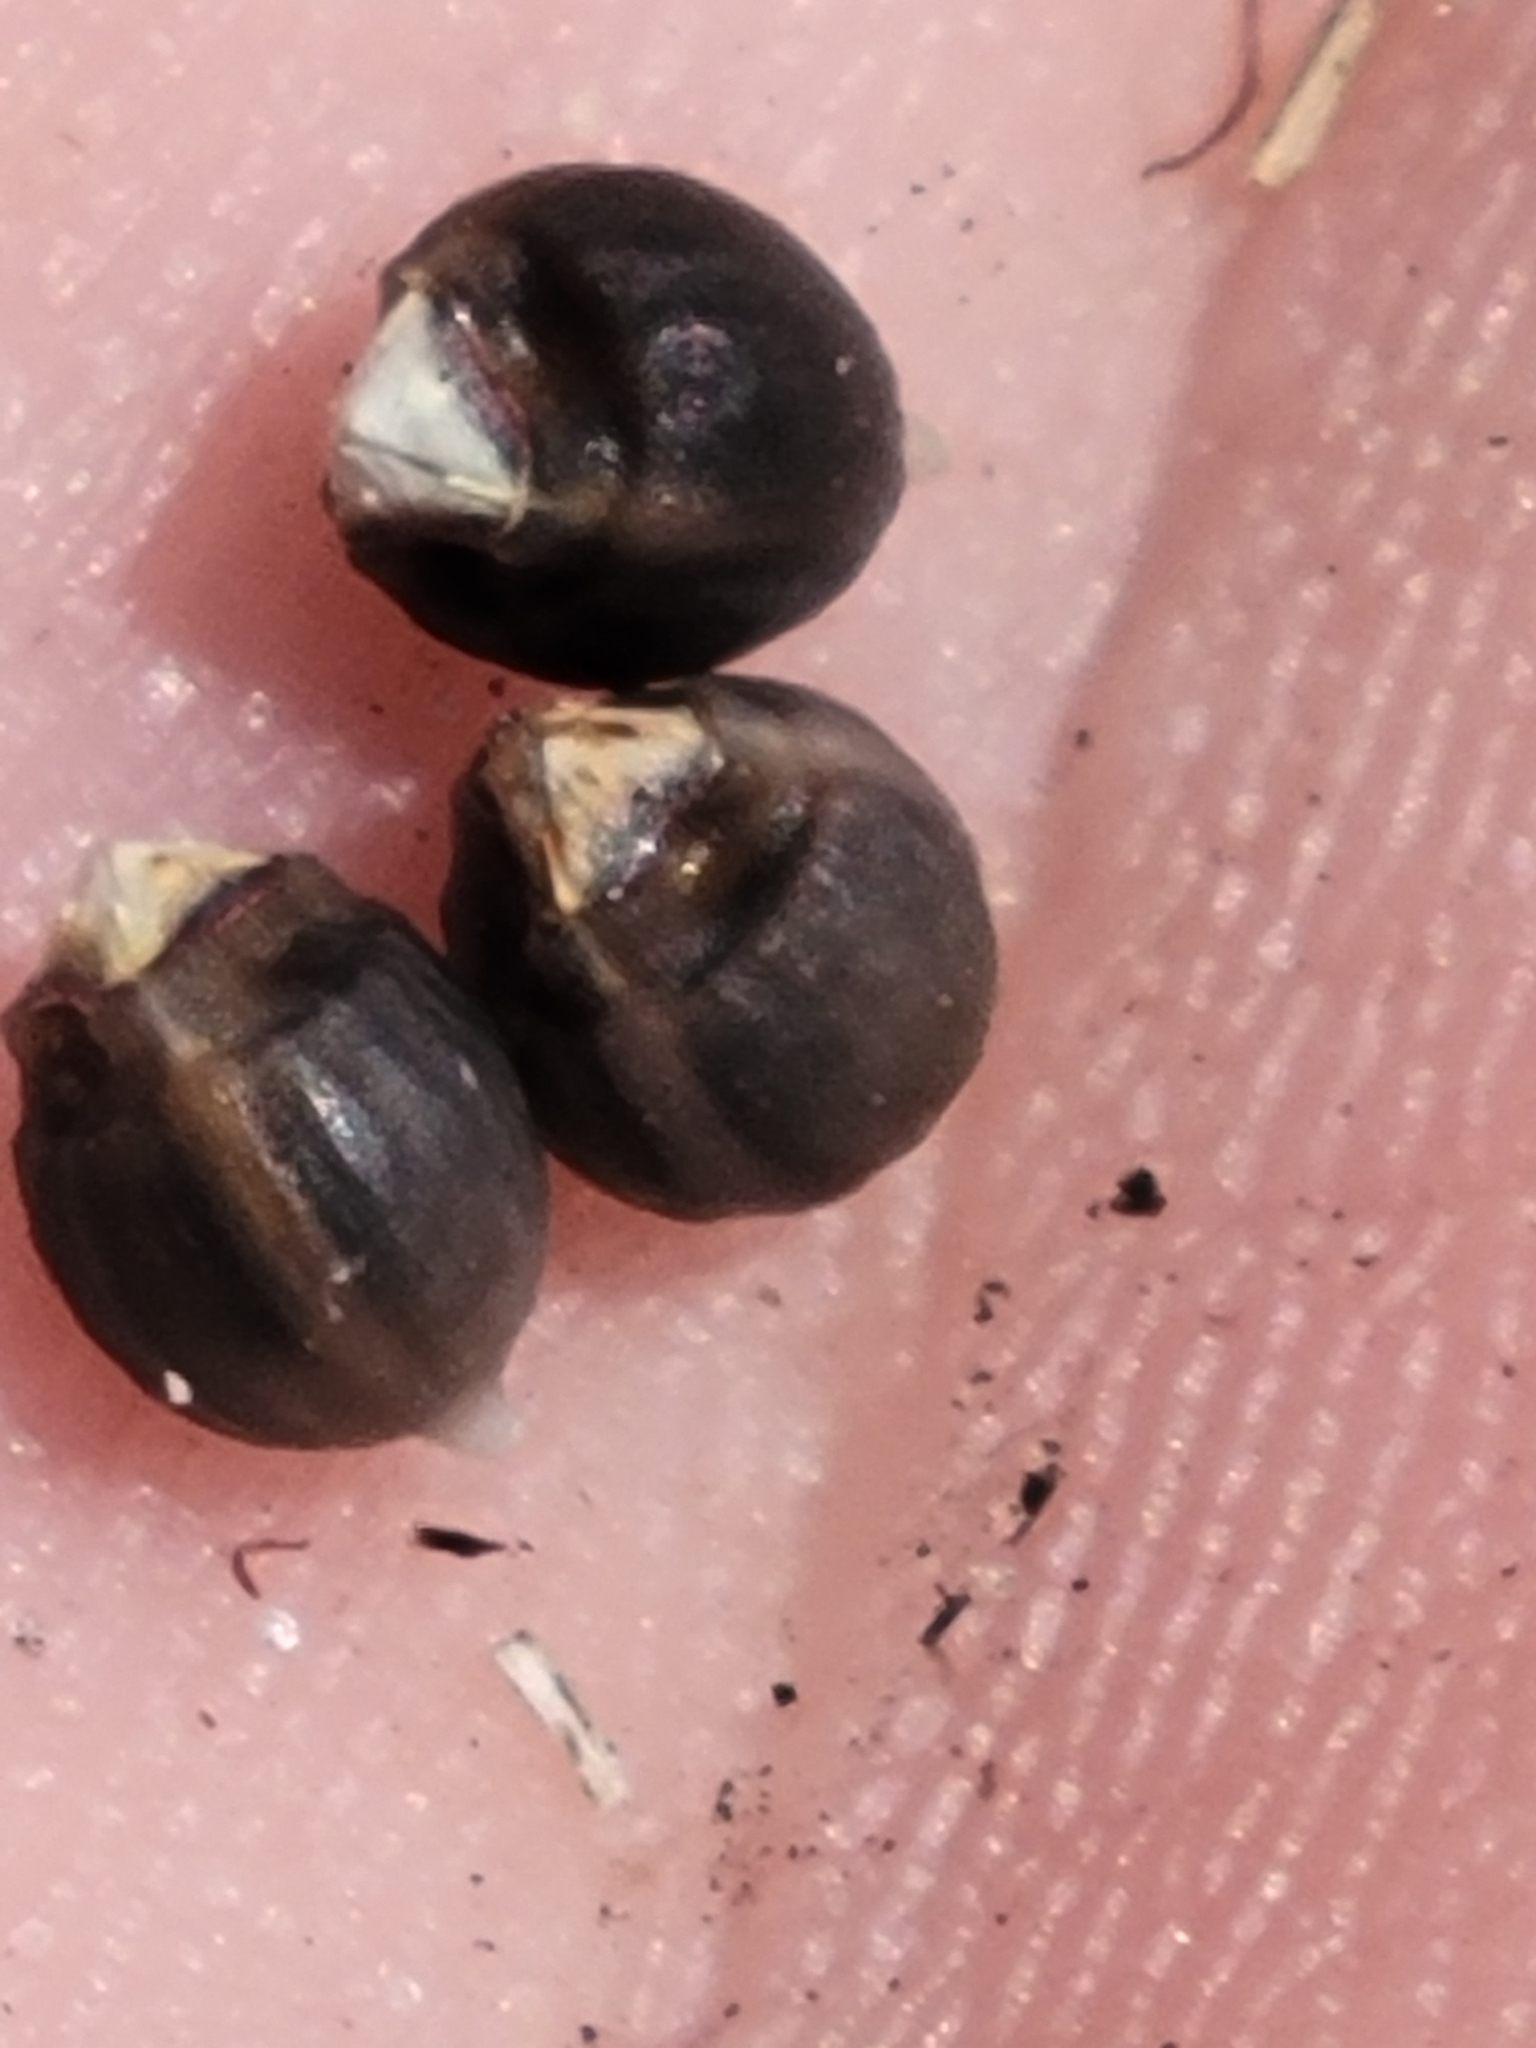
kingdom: Plantae
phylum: Tracheophyta
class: Liliopsida
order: Poales
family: Cyperaceae
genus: Scleria
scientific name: Scleria baldwinii
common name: Baldwin's nutrush
